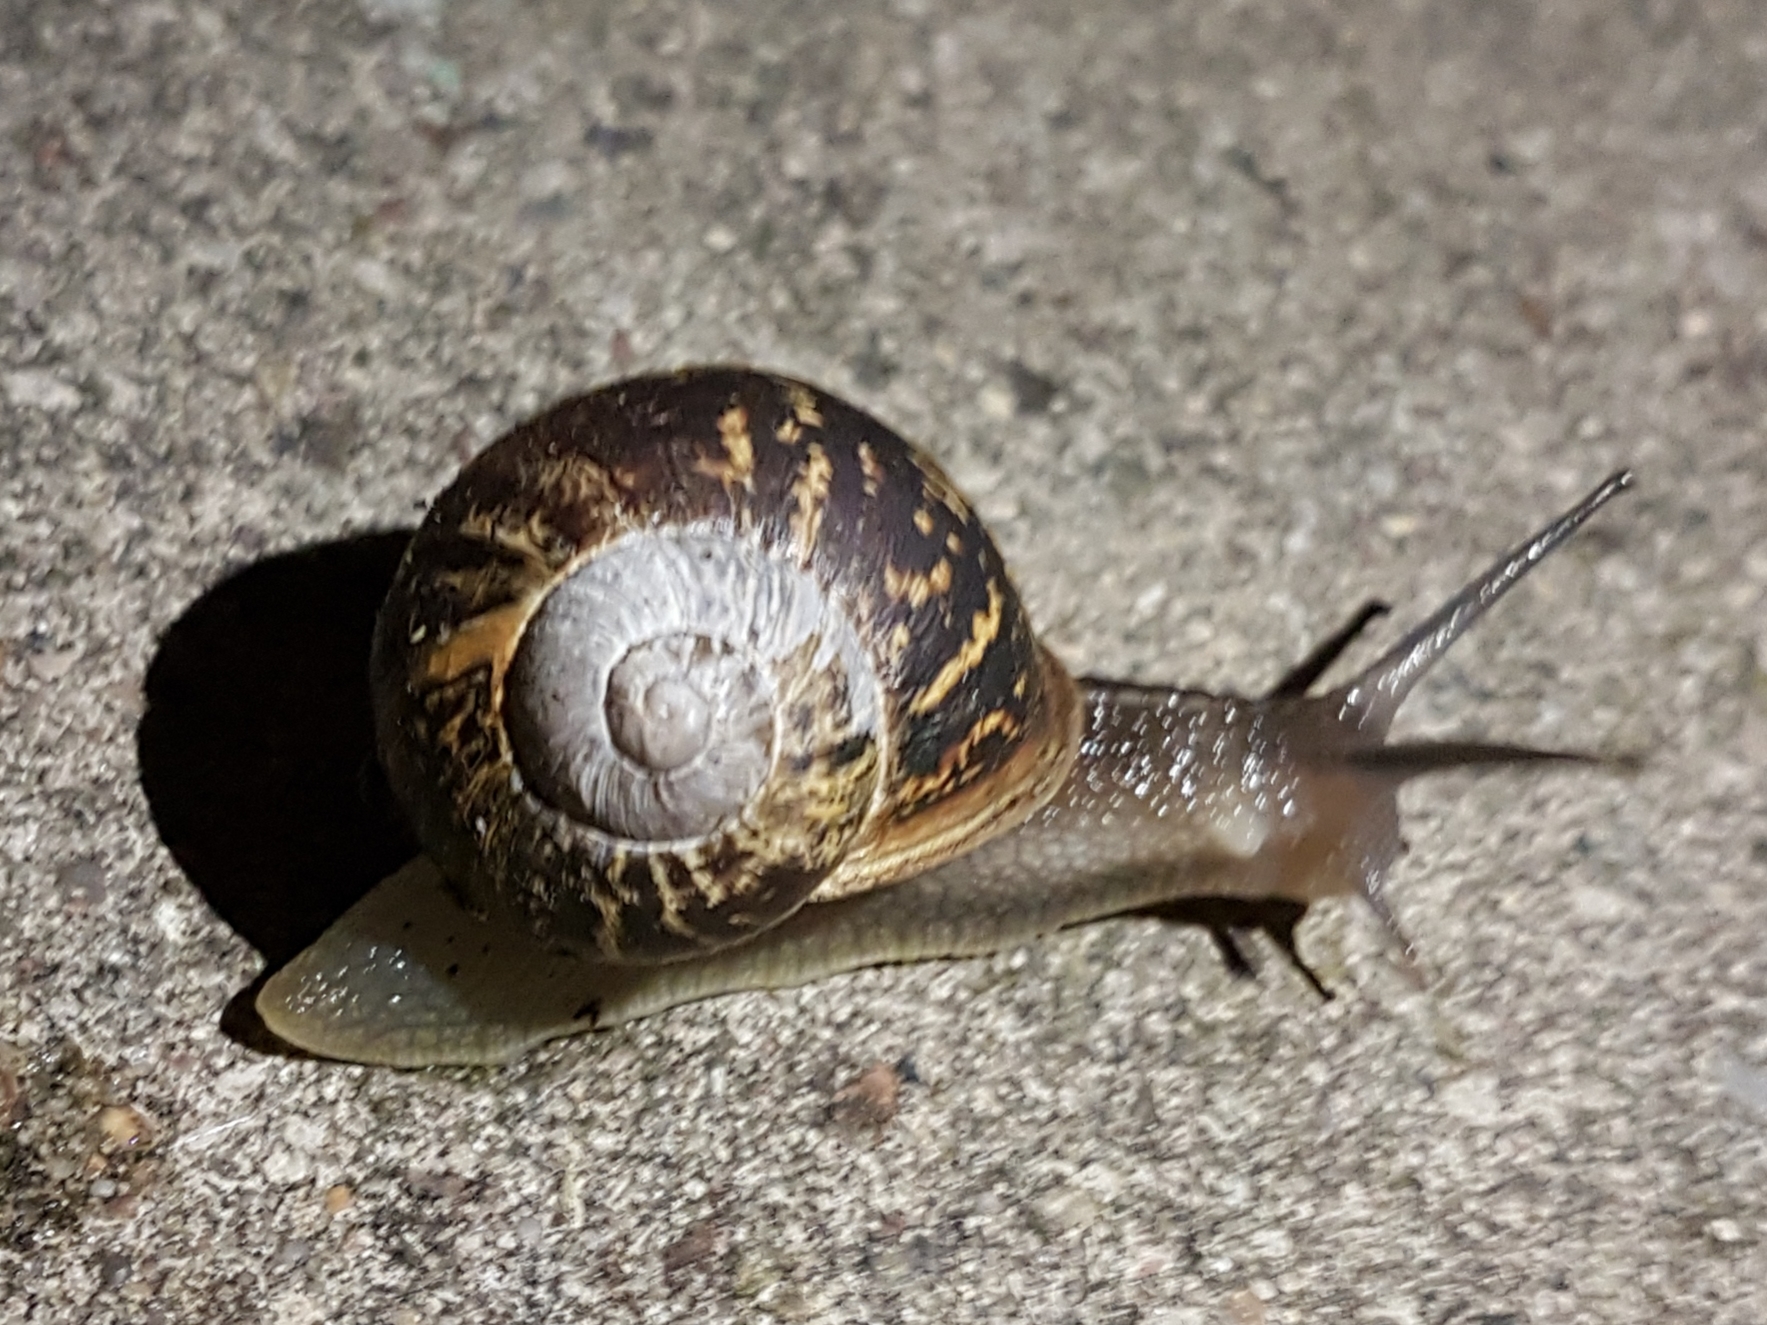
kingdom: Animalia
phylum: Mollusca
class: Gastropoda
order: Stylommatophora
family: Helicidae
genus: Cornu
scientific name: Cornu aspersum
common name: Brown garden snail
